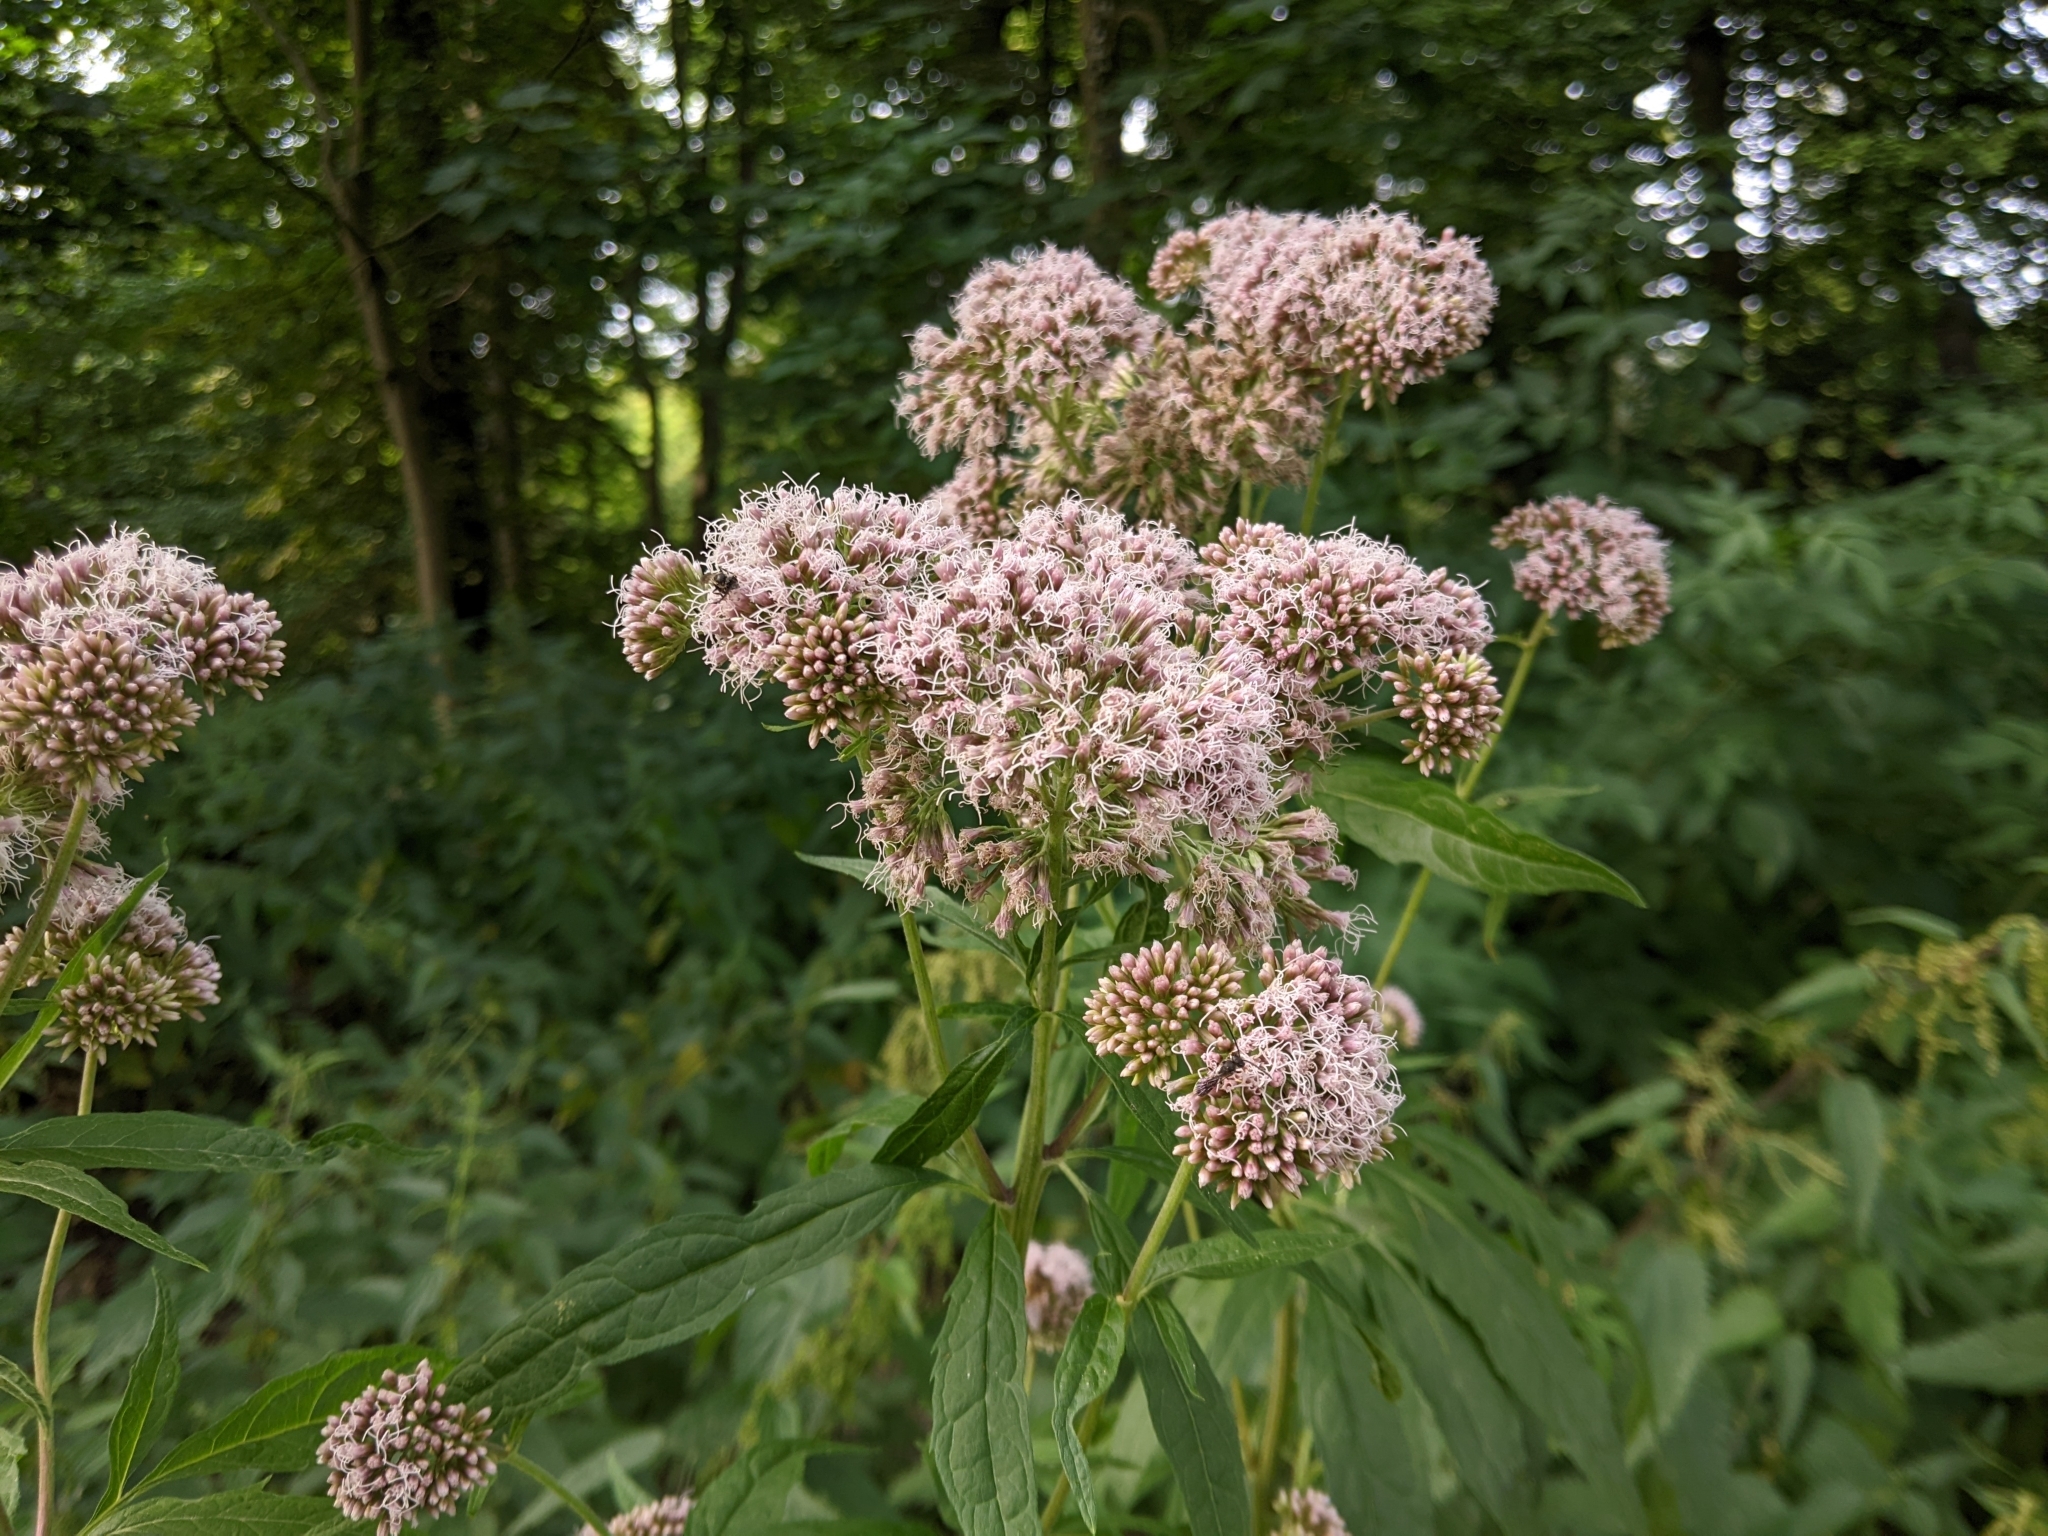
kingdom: Plantae
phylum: Tracheophyta
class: Magnoliopsida
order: Asterales
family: Asteraceae
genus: Eupatorium
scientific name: Eupatorium cannabinum
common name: Hemp-agrimony
